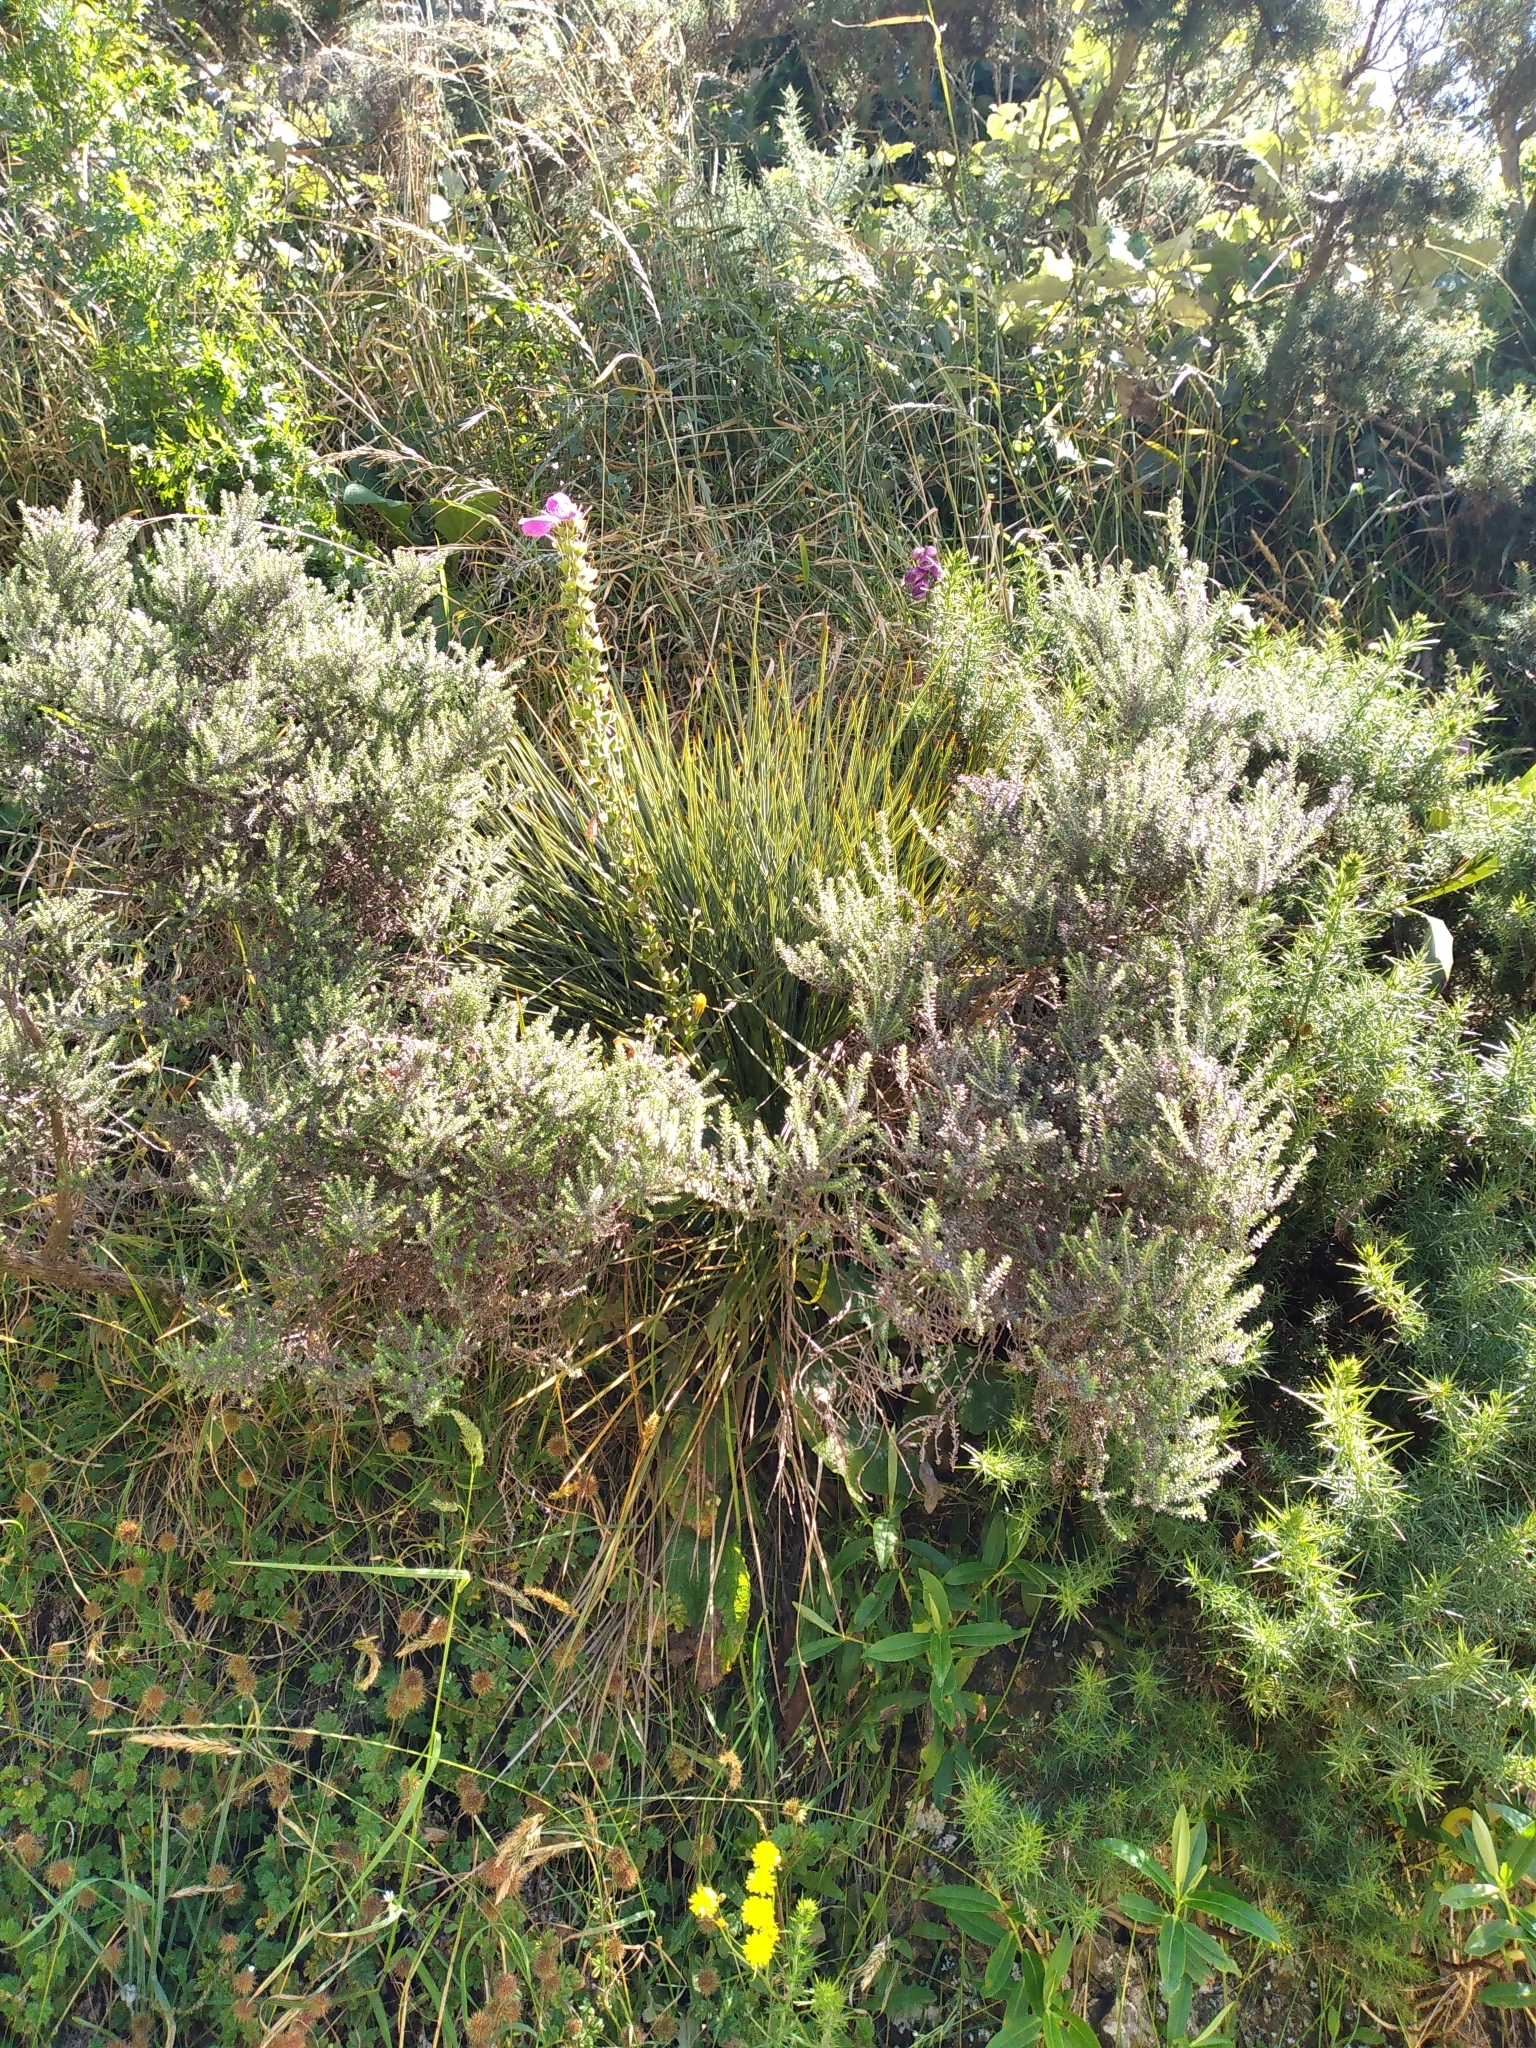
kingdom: Plantae
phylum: Tracheophyta
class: Magnoliopsida
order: Apiales
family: Apiaceae
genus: Aciphylla
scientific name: Aciphylla squarrosa
